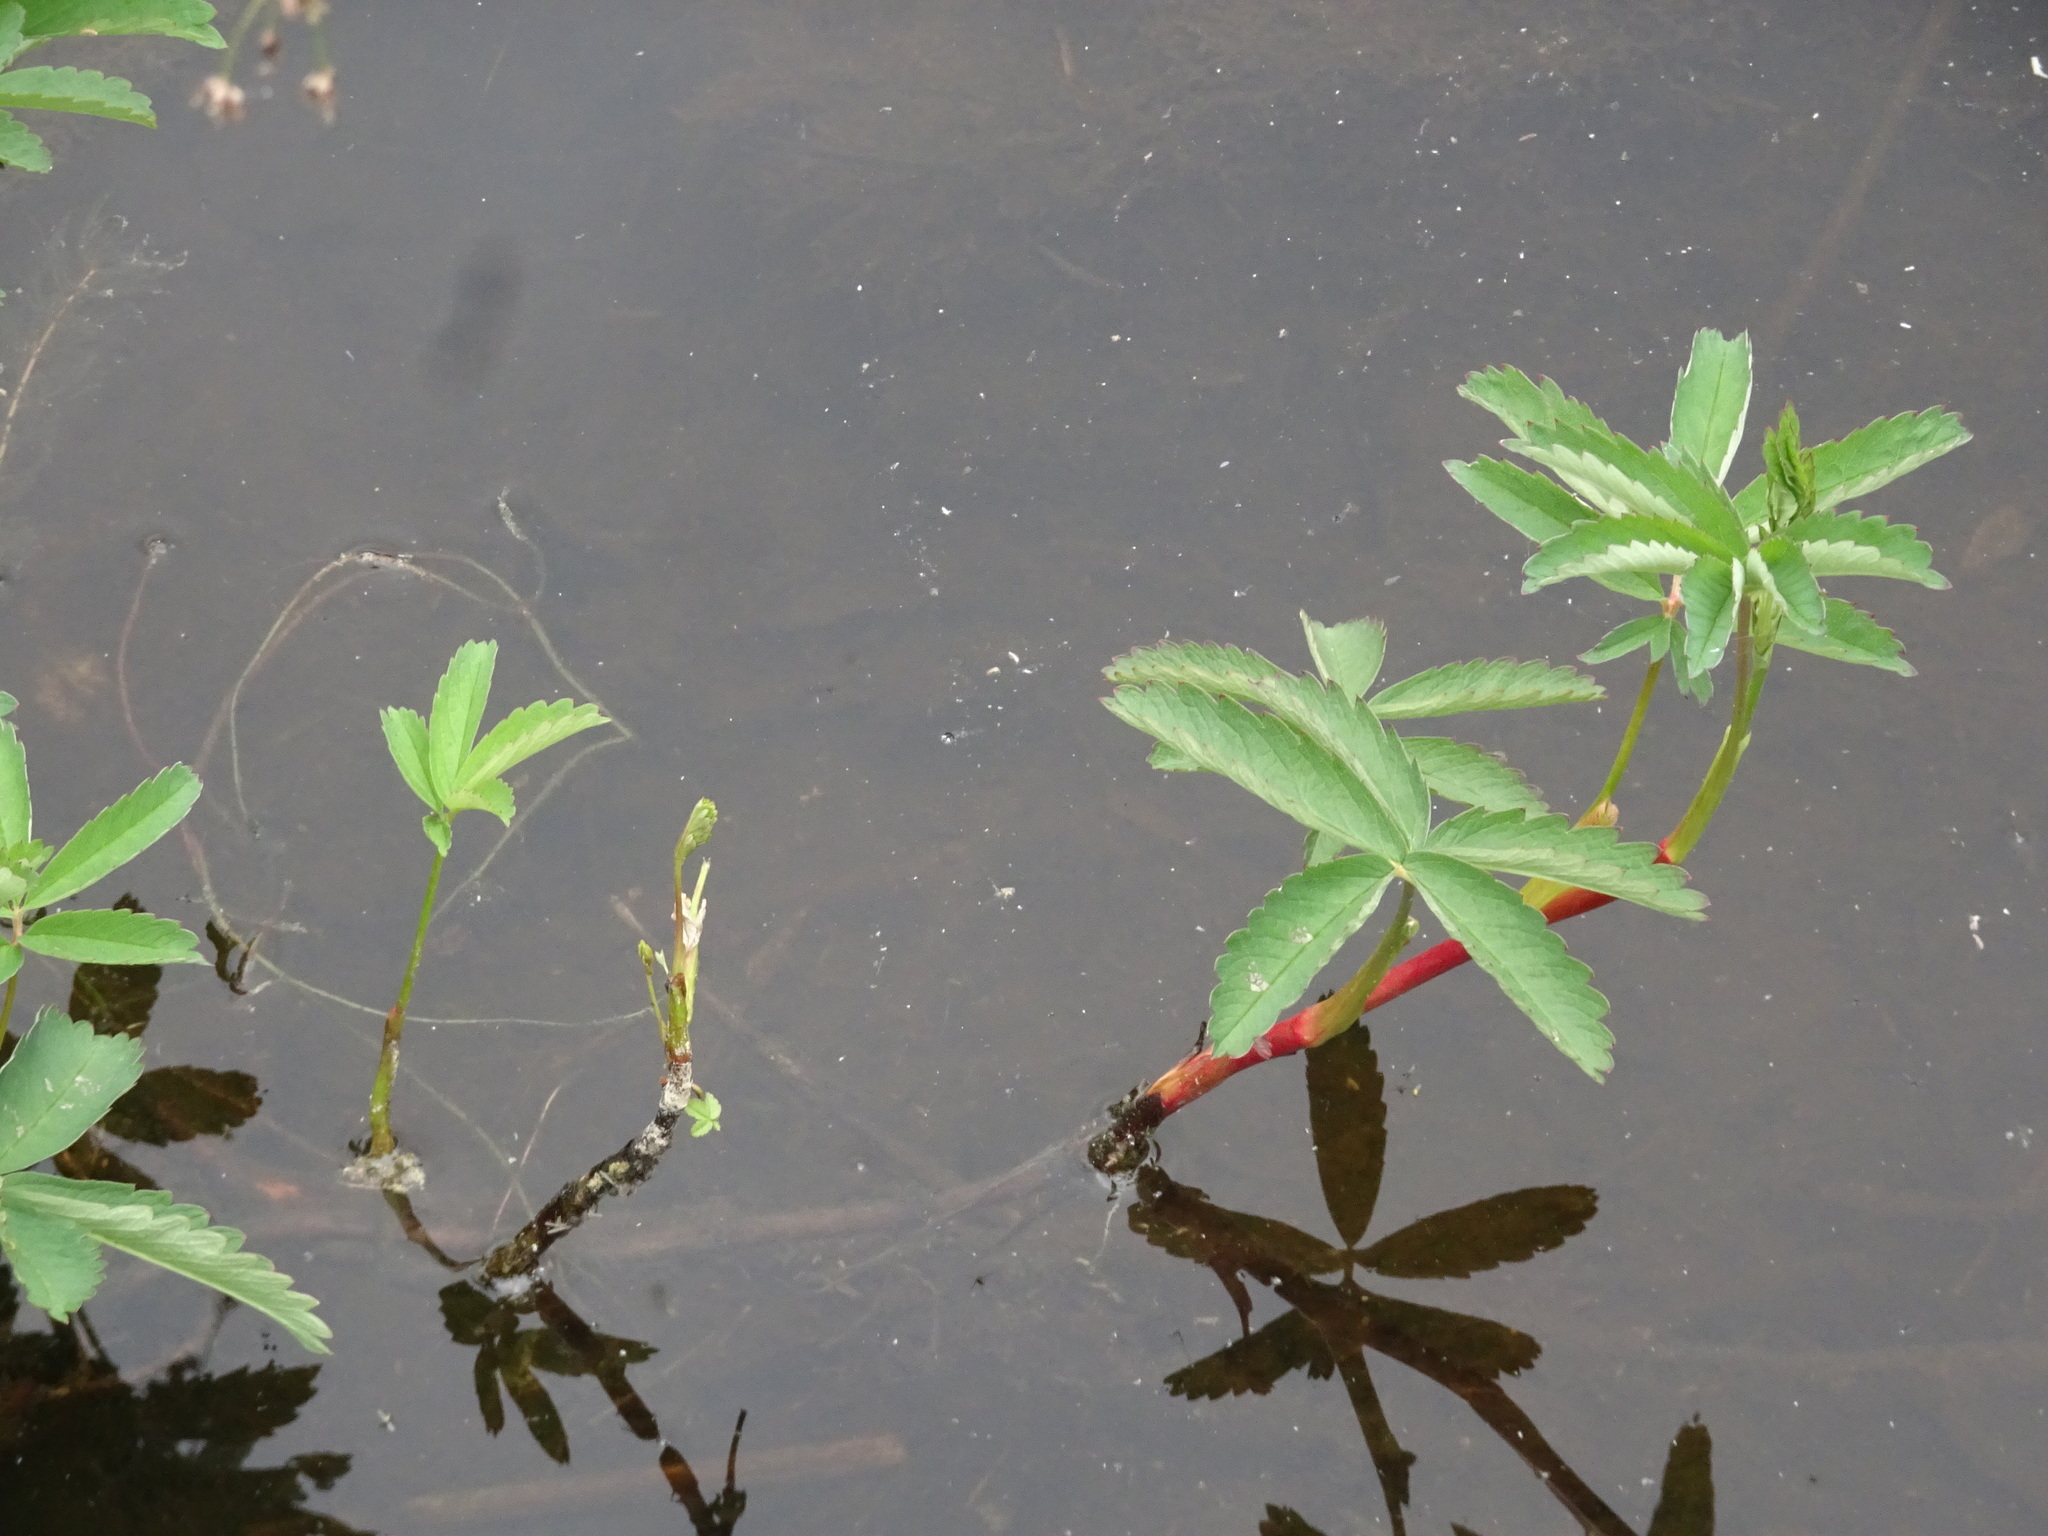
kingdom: Plantae
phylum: Tracheophyta
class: Magnoliopsida
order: Rosales
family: Rosaceae
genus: Comarum
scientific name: Comarum palustre
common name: Marsh cinquefoil
